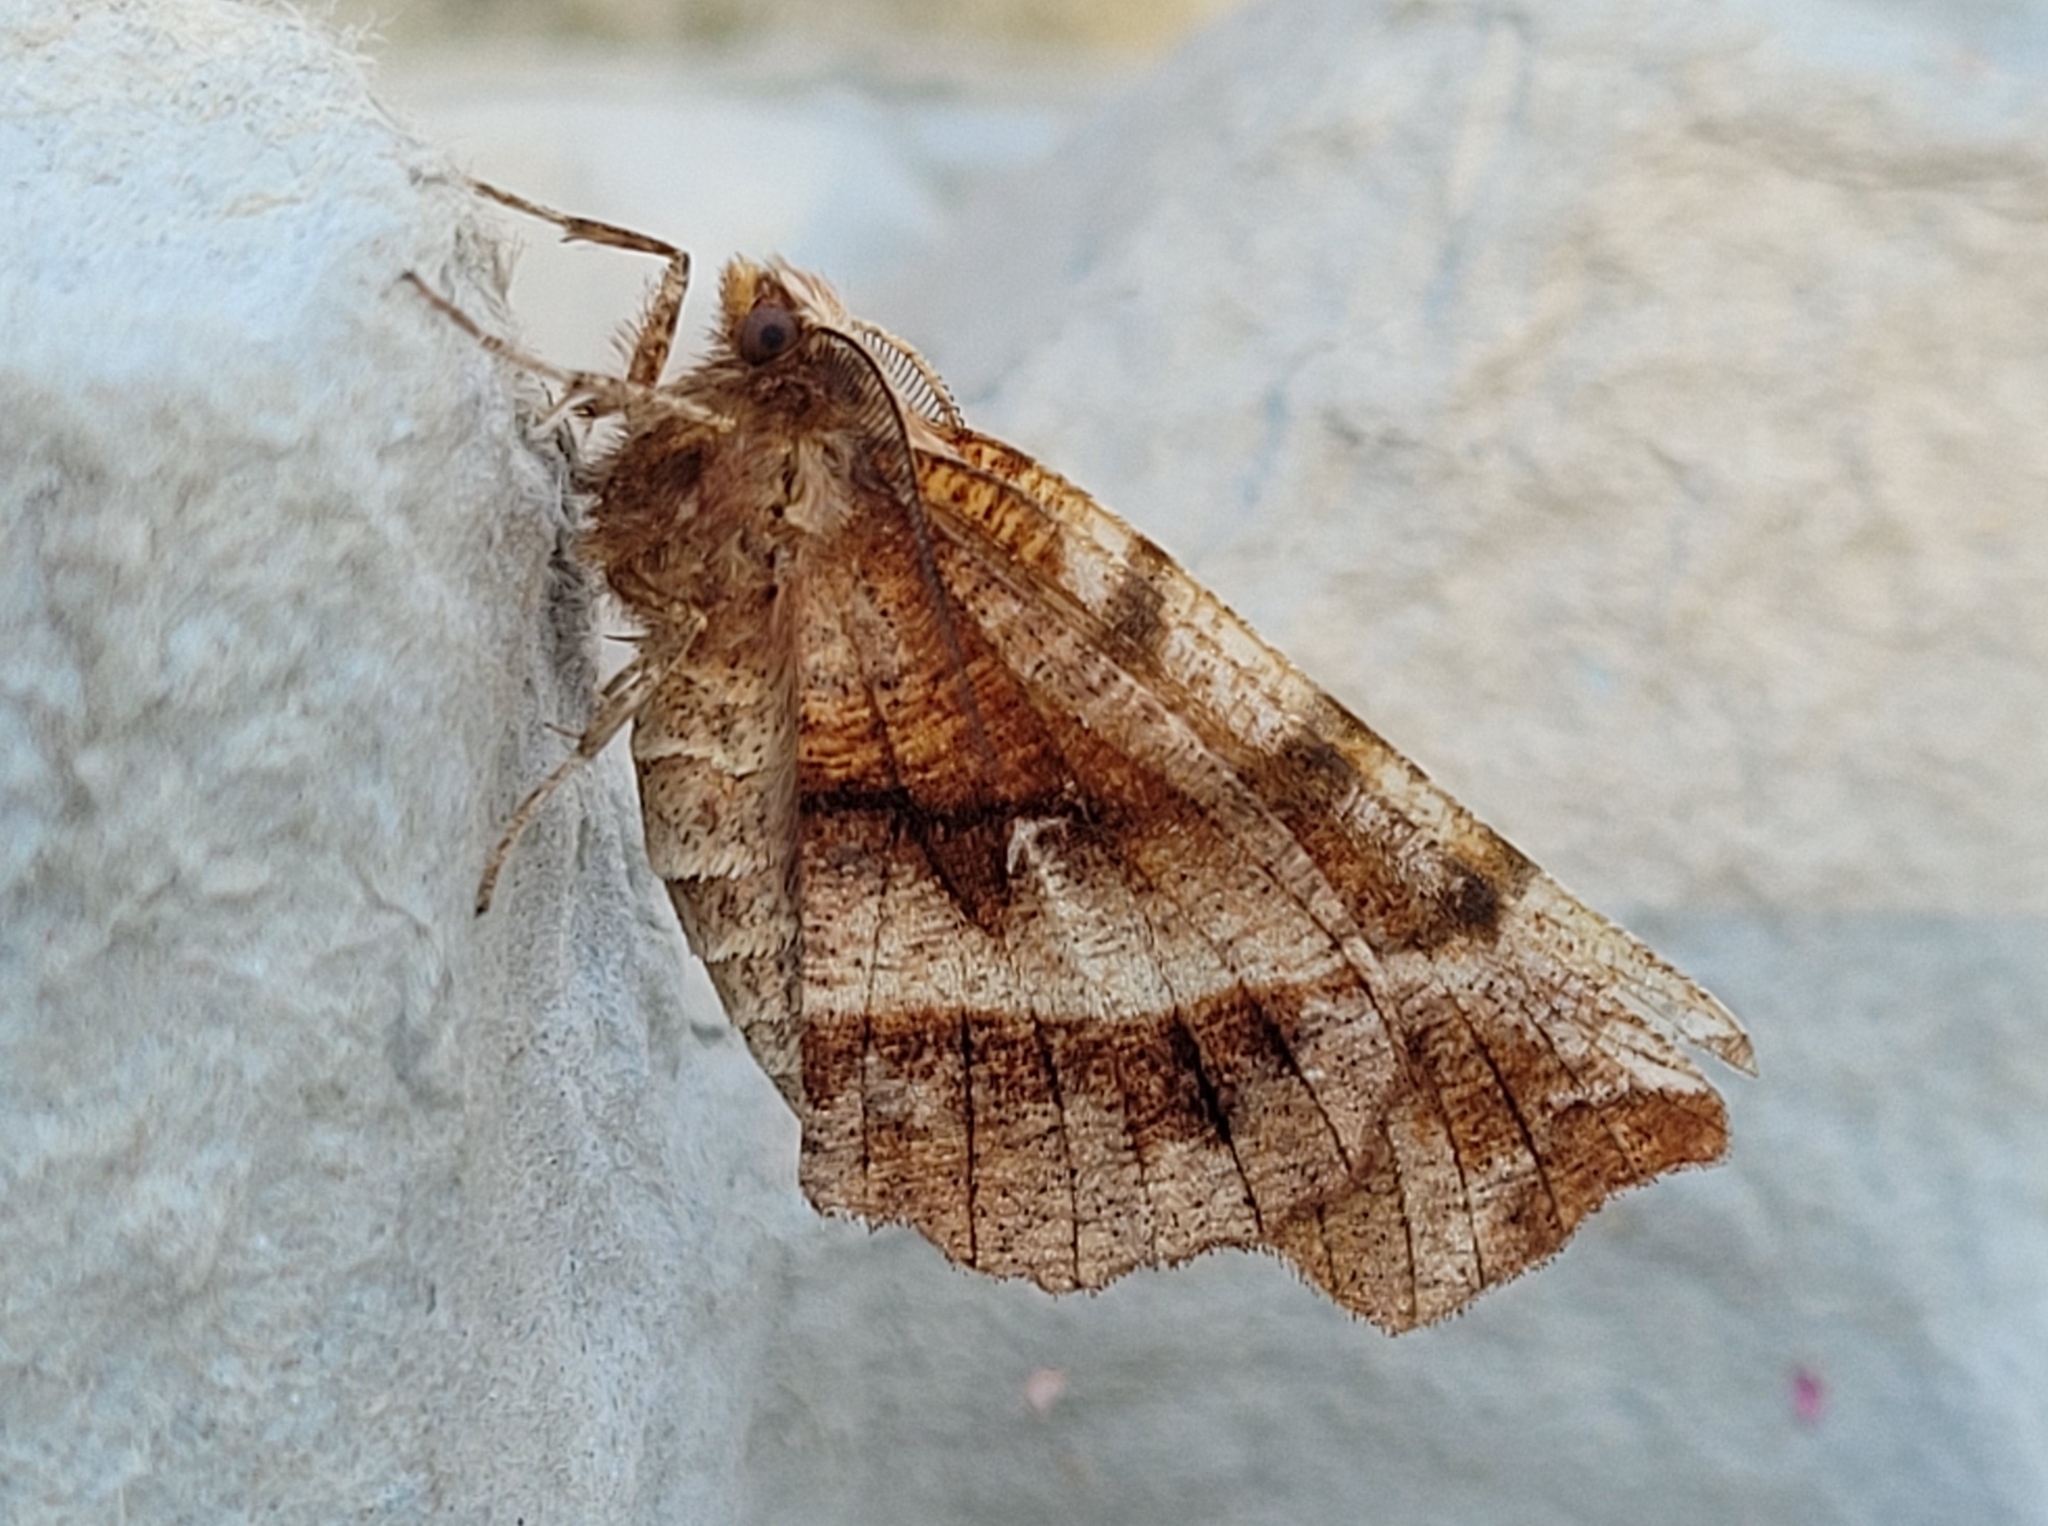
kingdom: Animalia
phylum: Arthropoda
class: Insecta
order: Lepidoptera
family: Geometridae
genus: Selenia
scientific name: Selenia dentaria
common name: Early thorn
